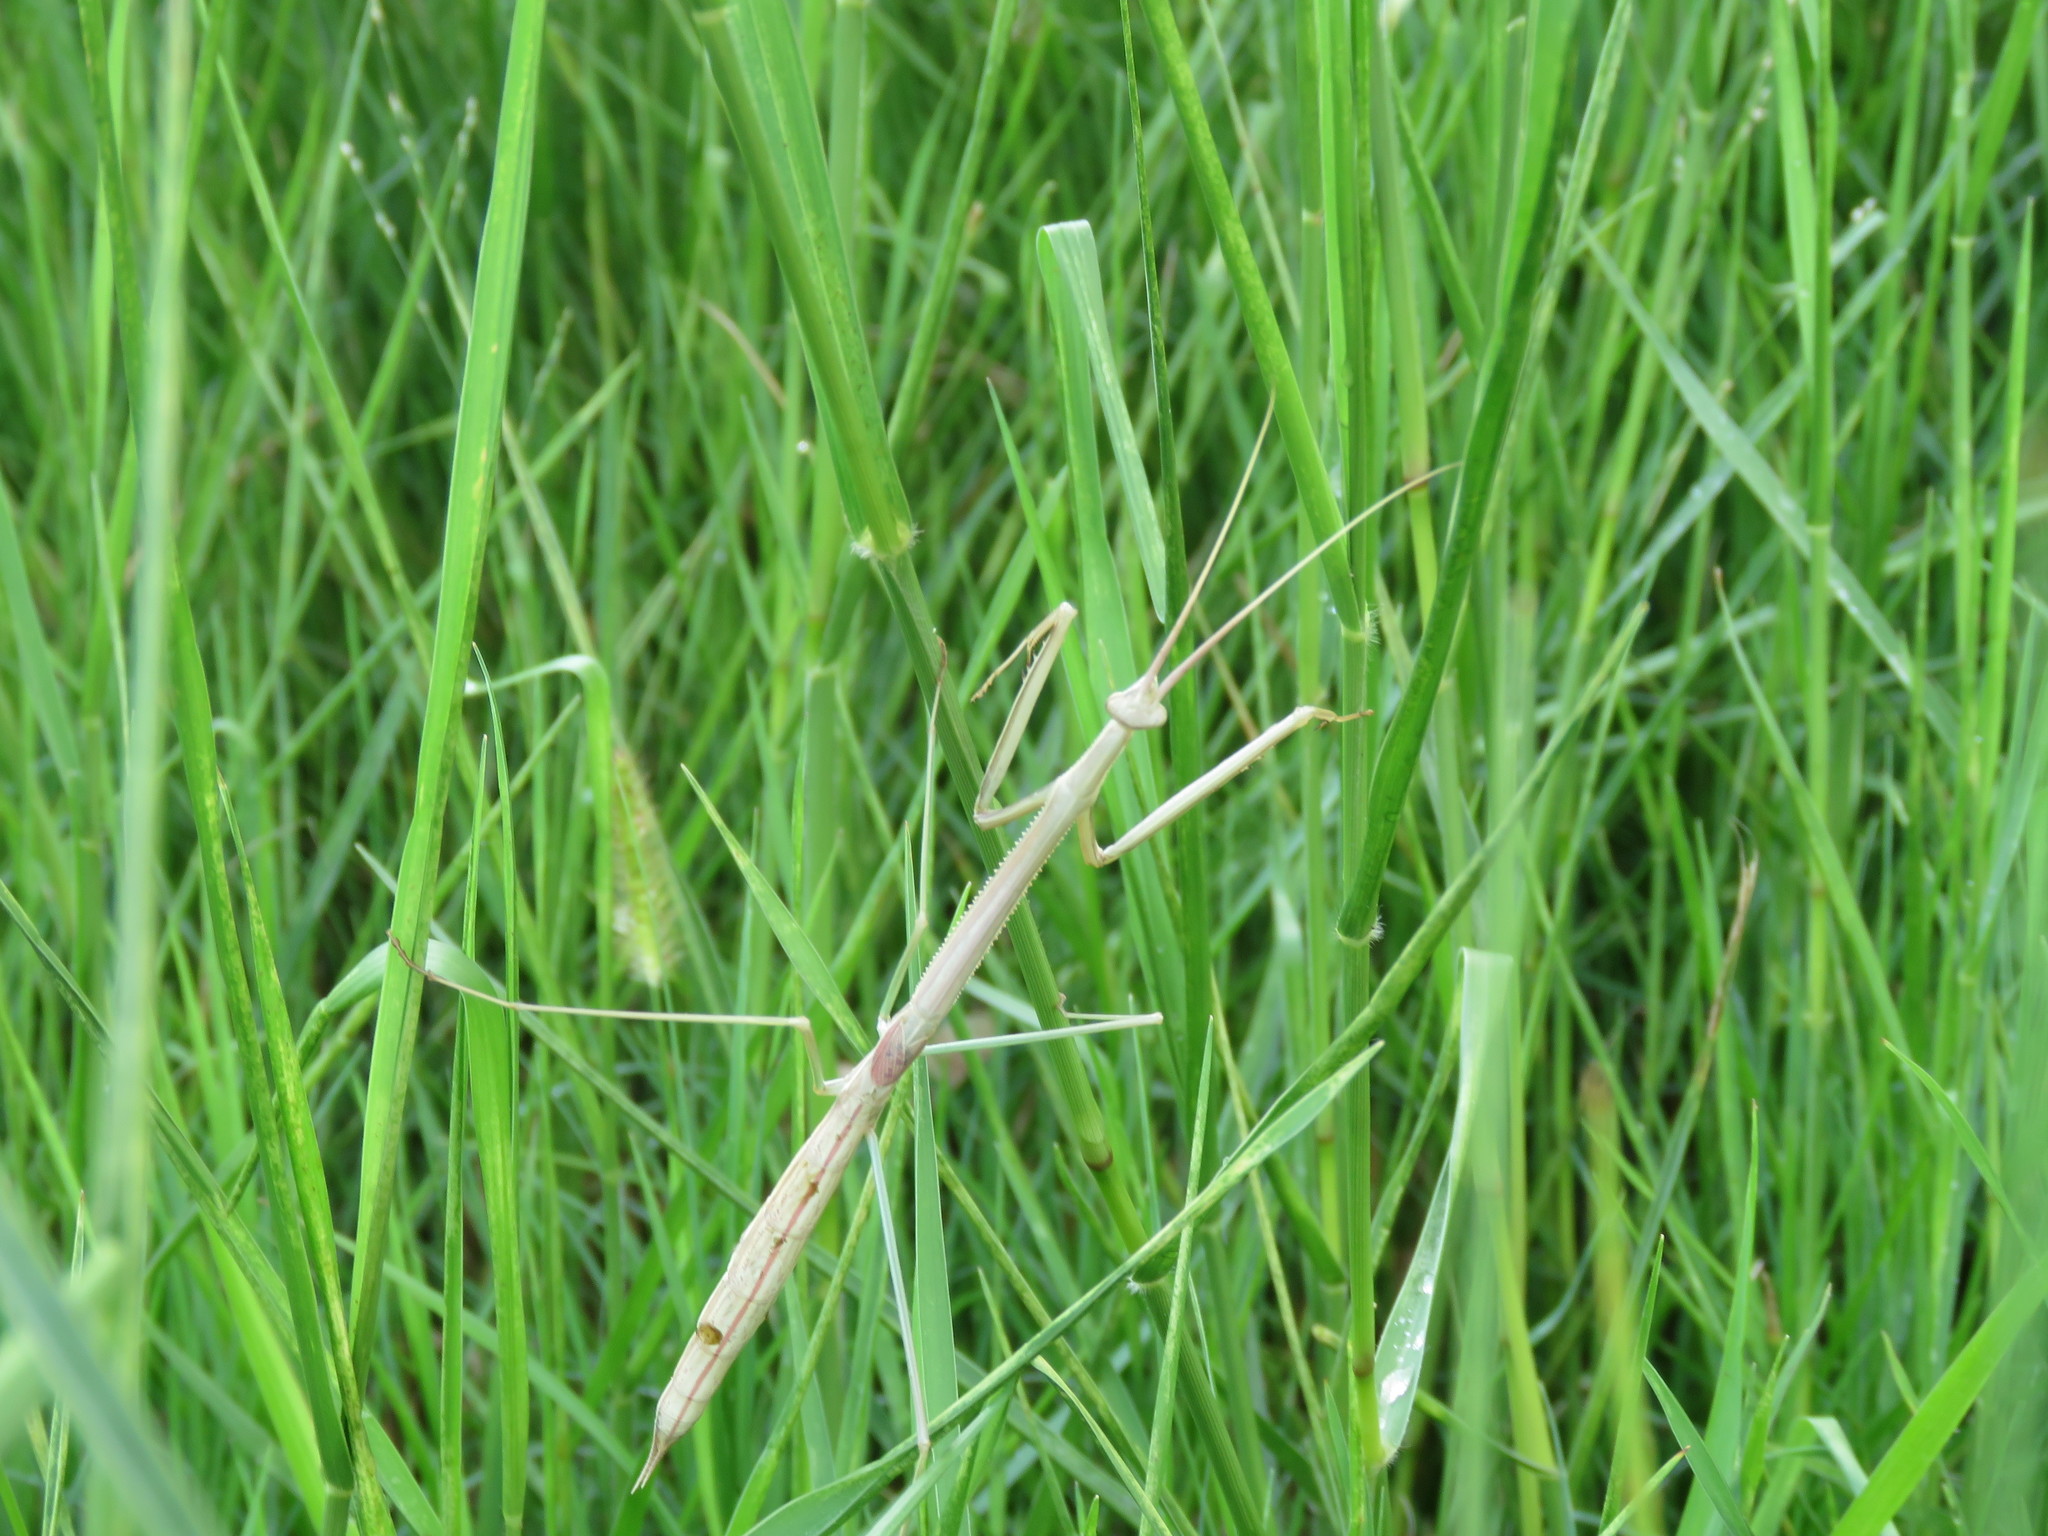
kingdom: Animalia
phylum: Arthropoda
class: Insecta
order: Mantodea
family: Coptopterygidae
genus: Brunneria
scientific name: Brunneria borealis
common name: Mantis
